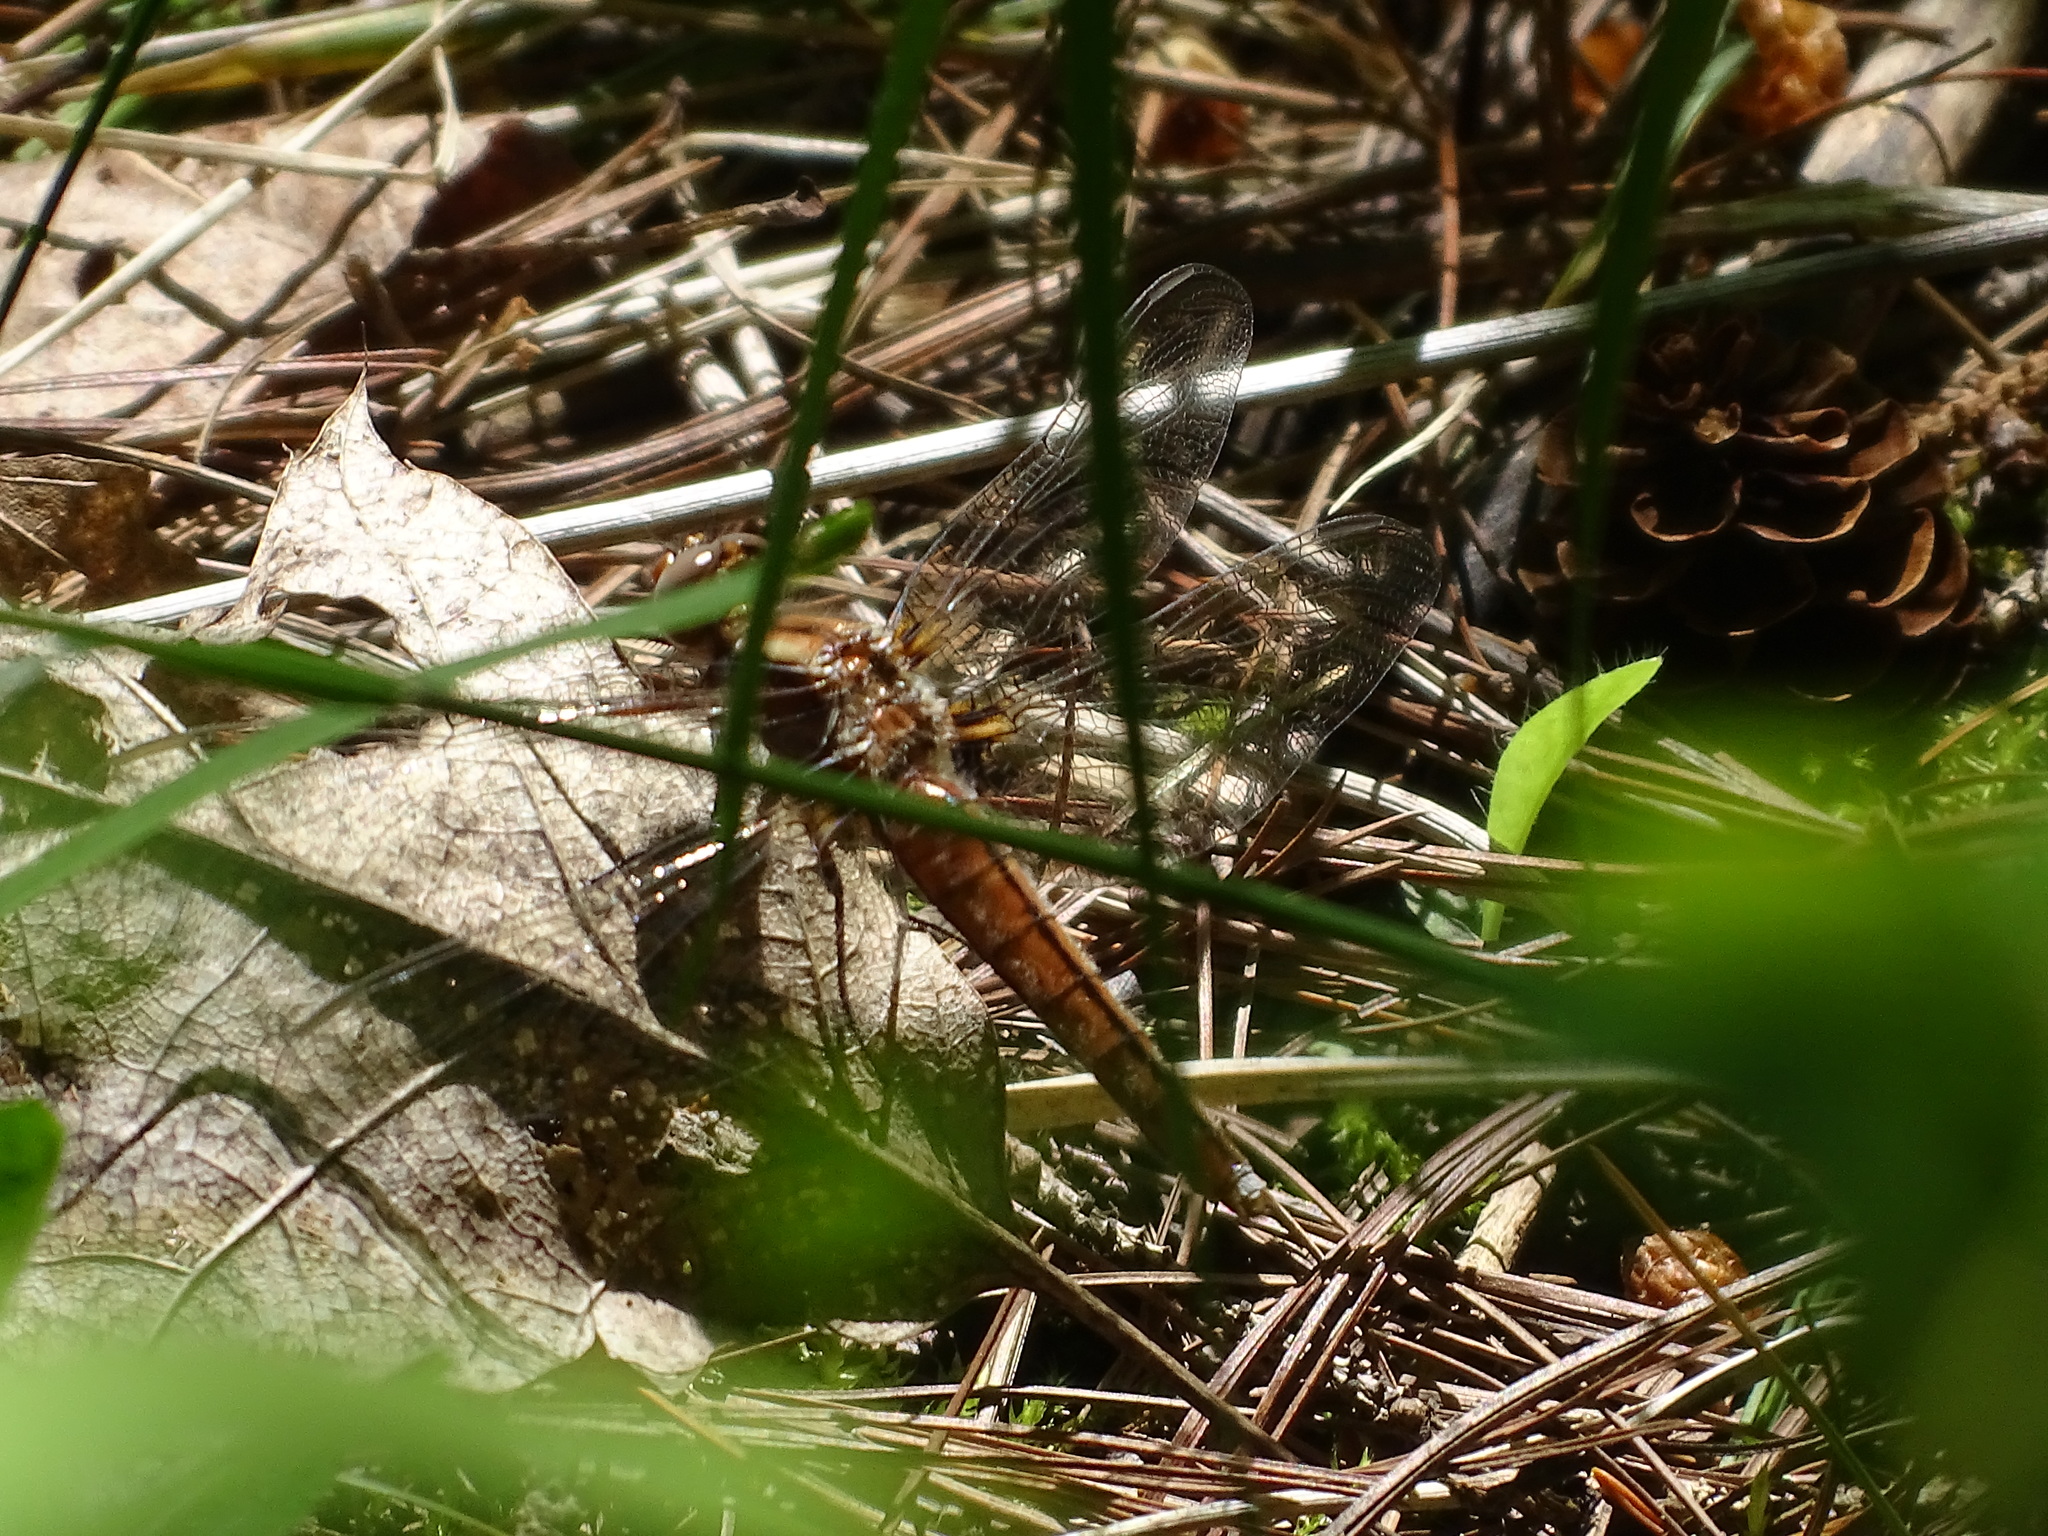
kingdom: Animalia
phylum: Arthropoda
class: Insecta
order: Odonata
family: Libellulidae
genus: Ladona
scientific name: Ladona julia
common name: Chalk-fronted corporal
